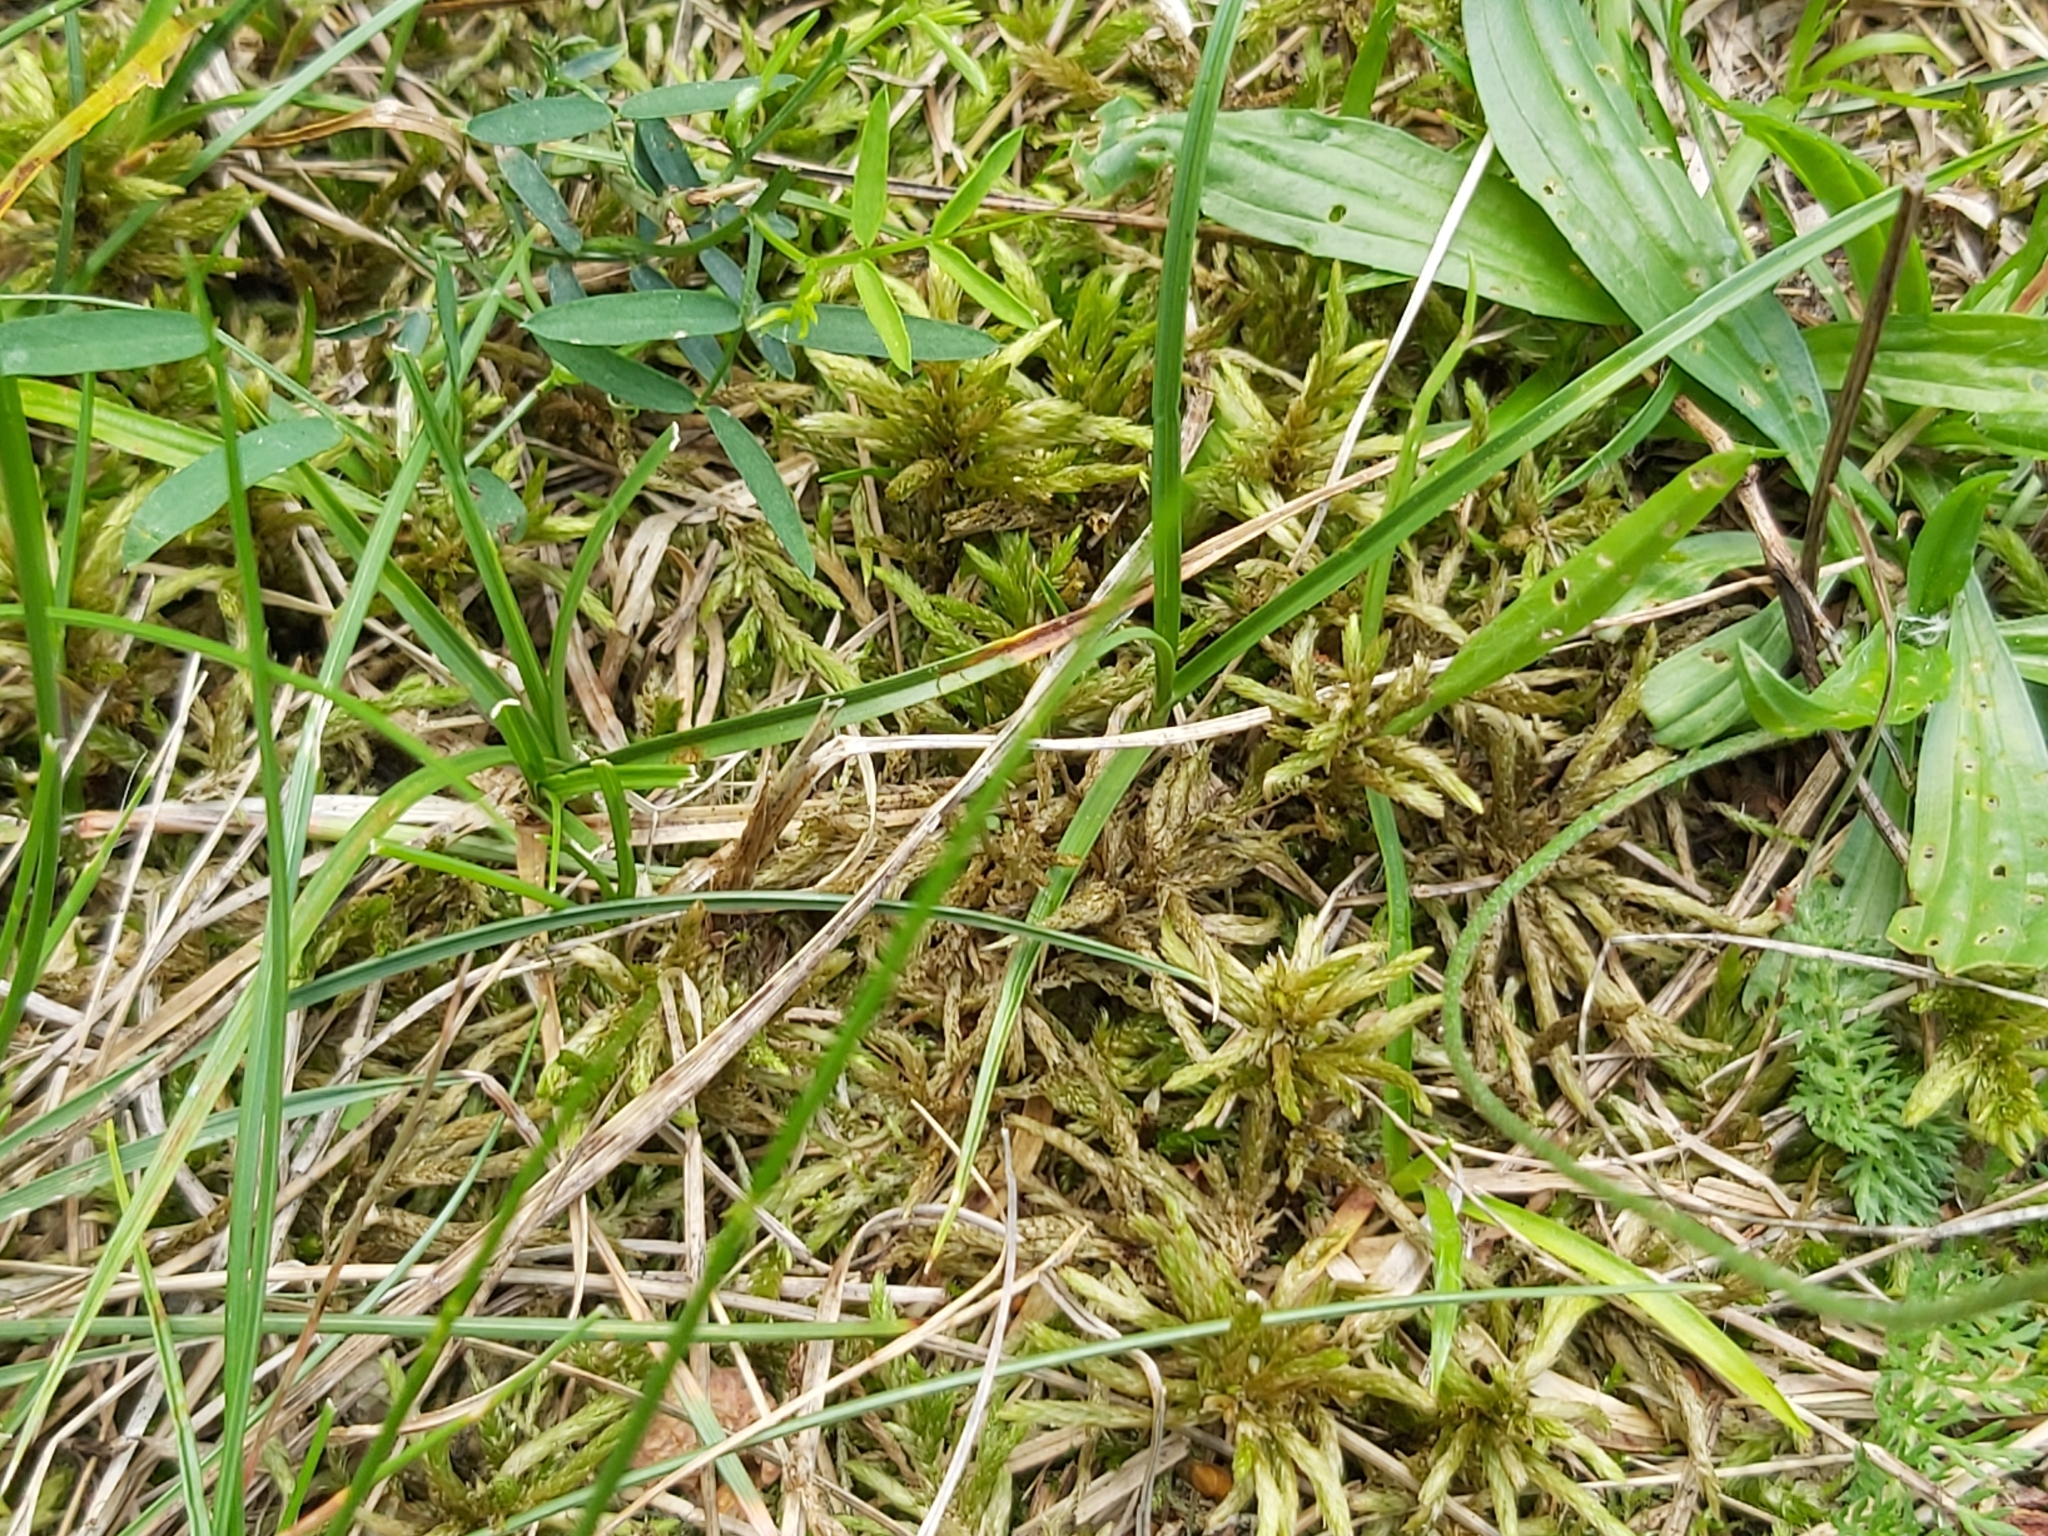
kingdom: Plantae
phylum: Bryophyta
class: Bryopsida
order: Hypnales
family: Climaciaceae
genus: Climacium
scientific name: Climacium dendroides
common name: Northern tree moss
